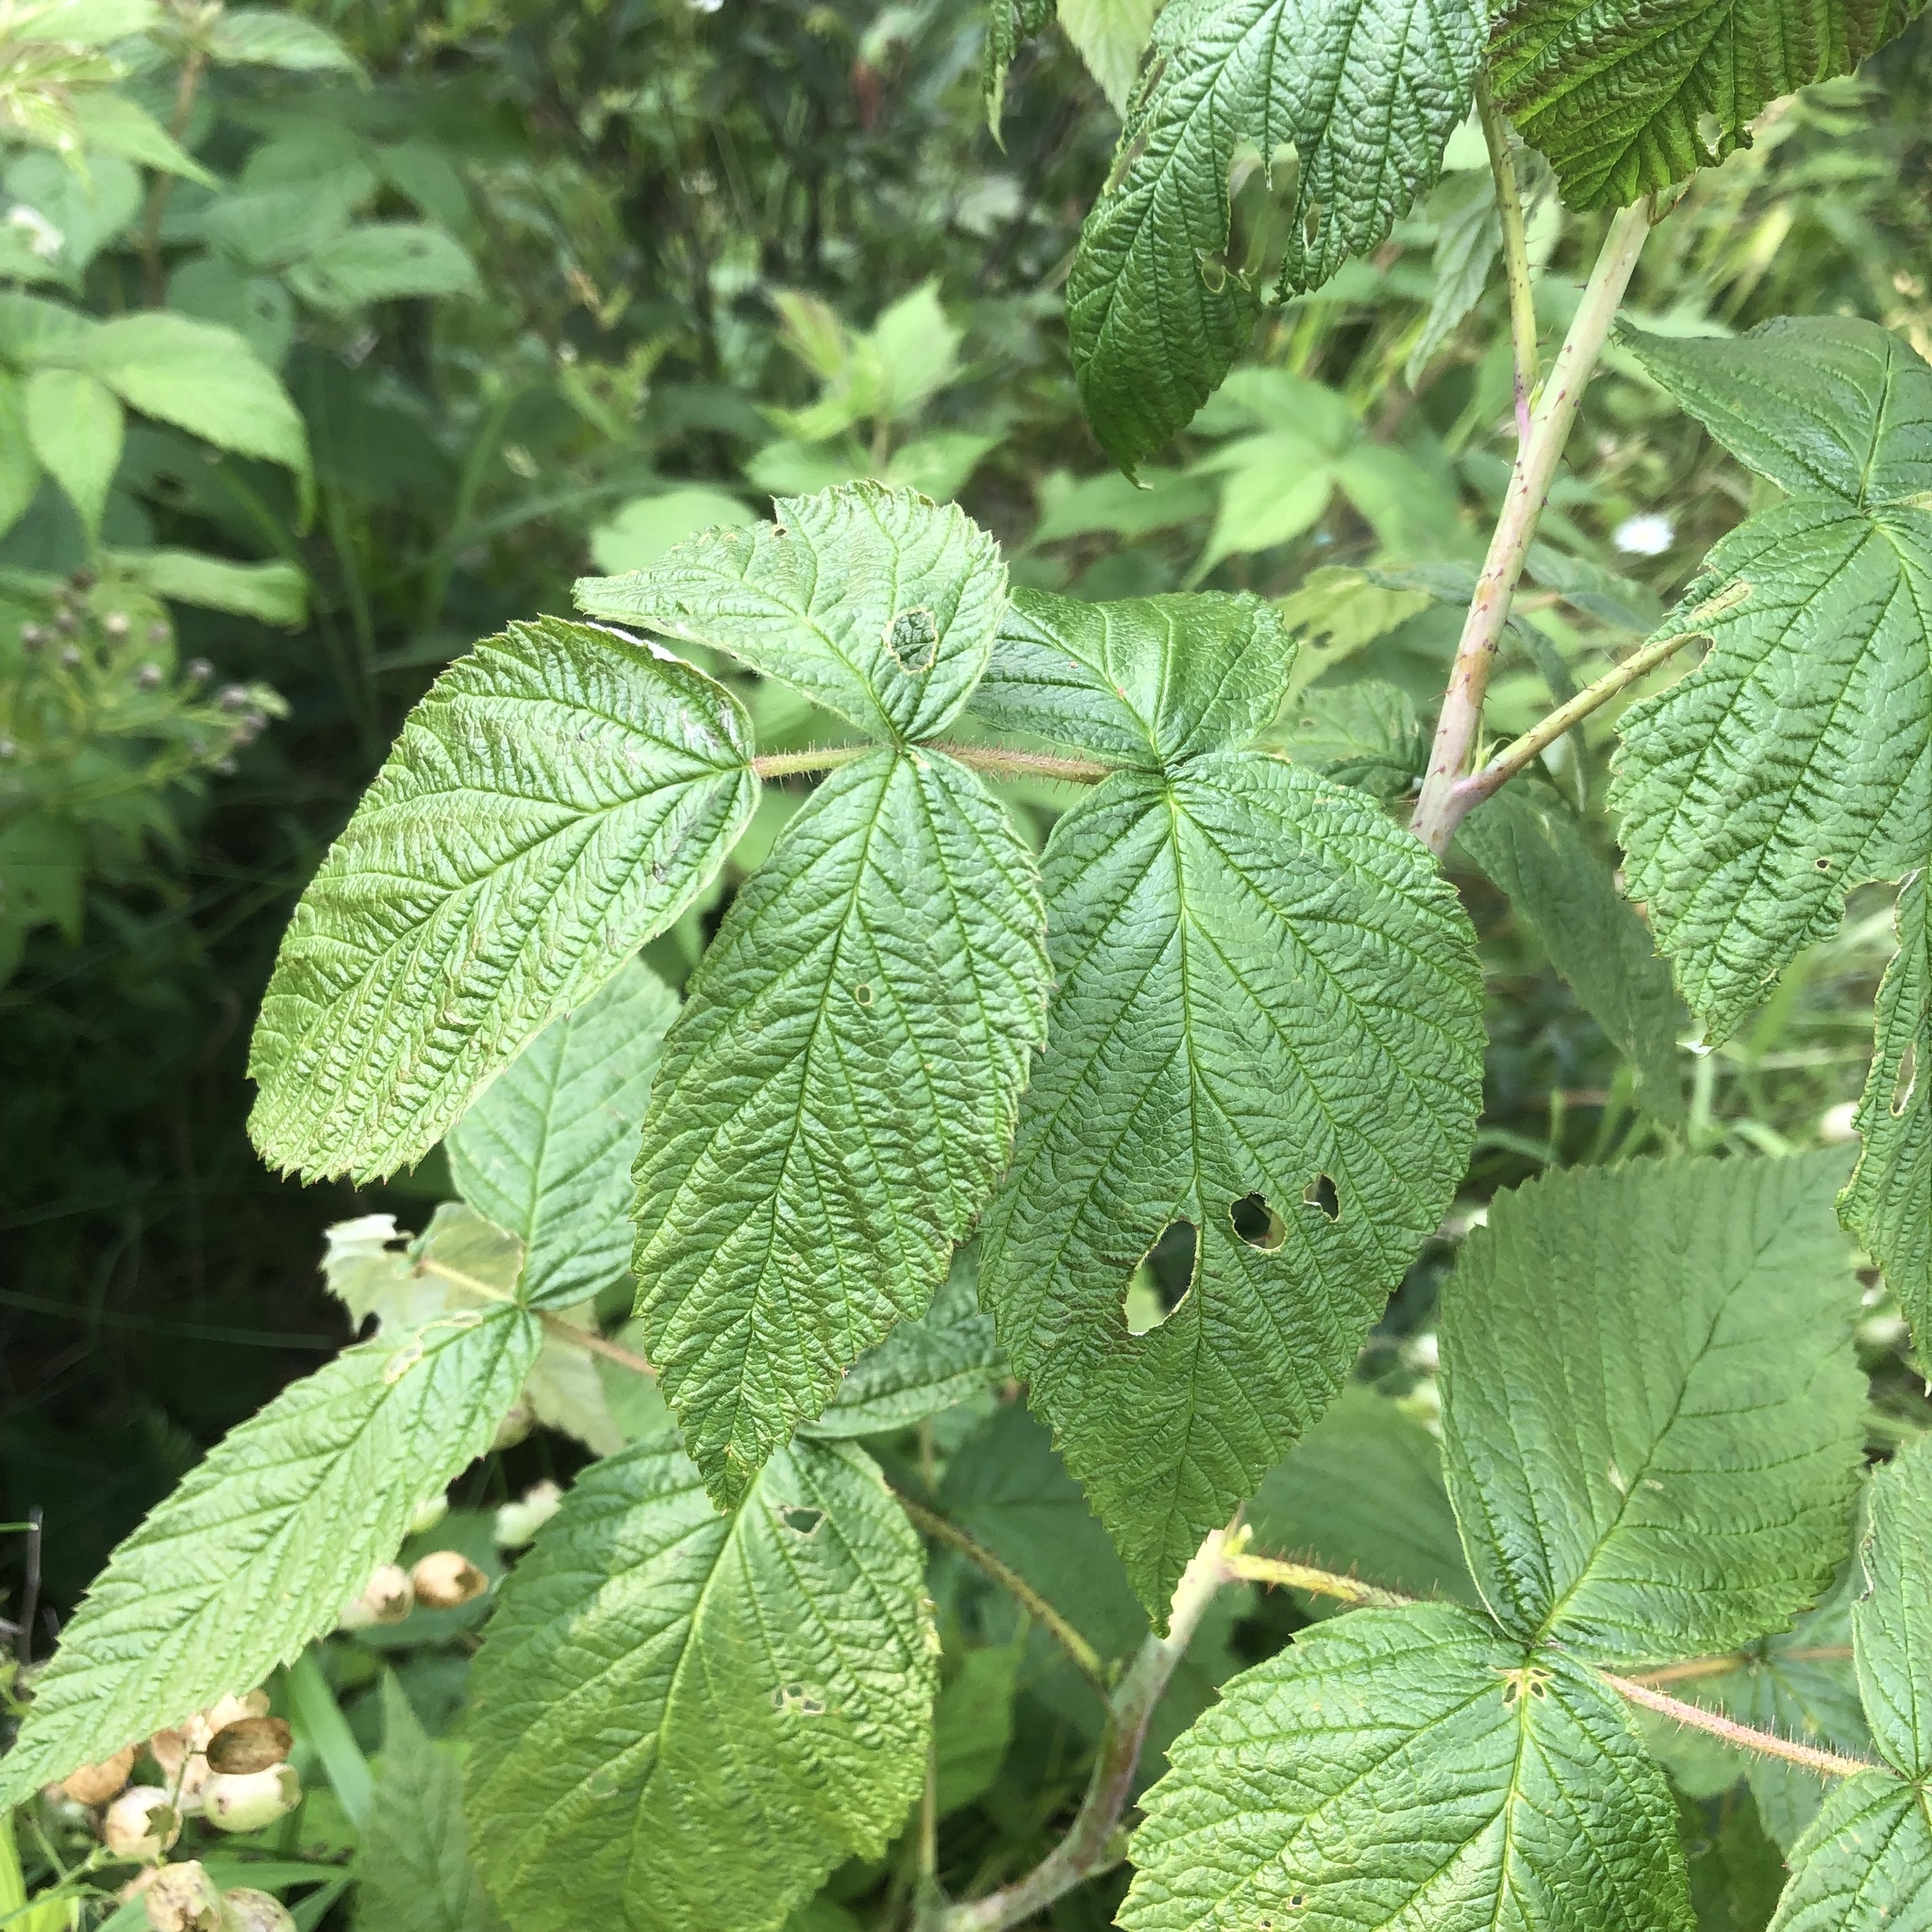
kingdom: Plantae
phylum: Tracheophyta
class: Magnoliopsida
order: Rosales
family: Rosaceae
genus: Rubus
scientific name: Rubus idaeus
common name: Raspberry
